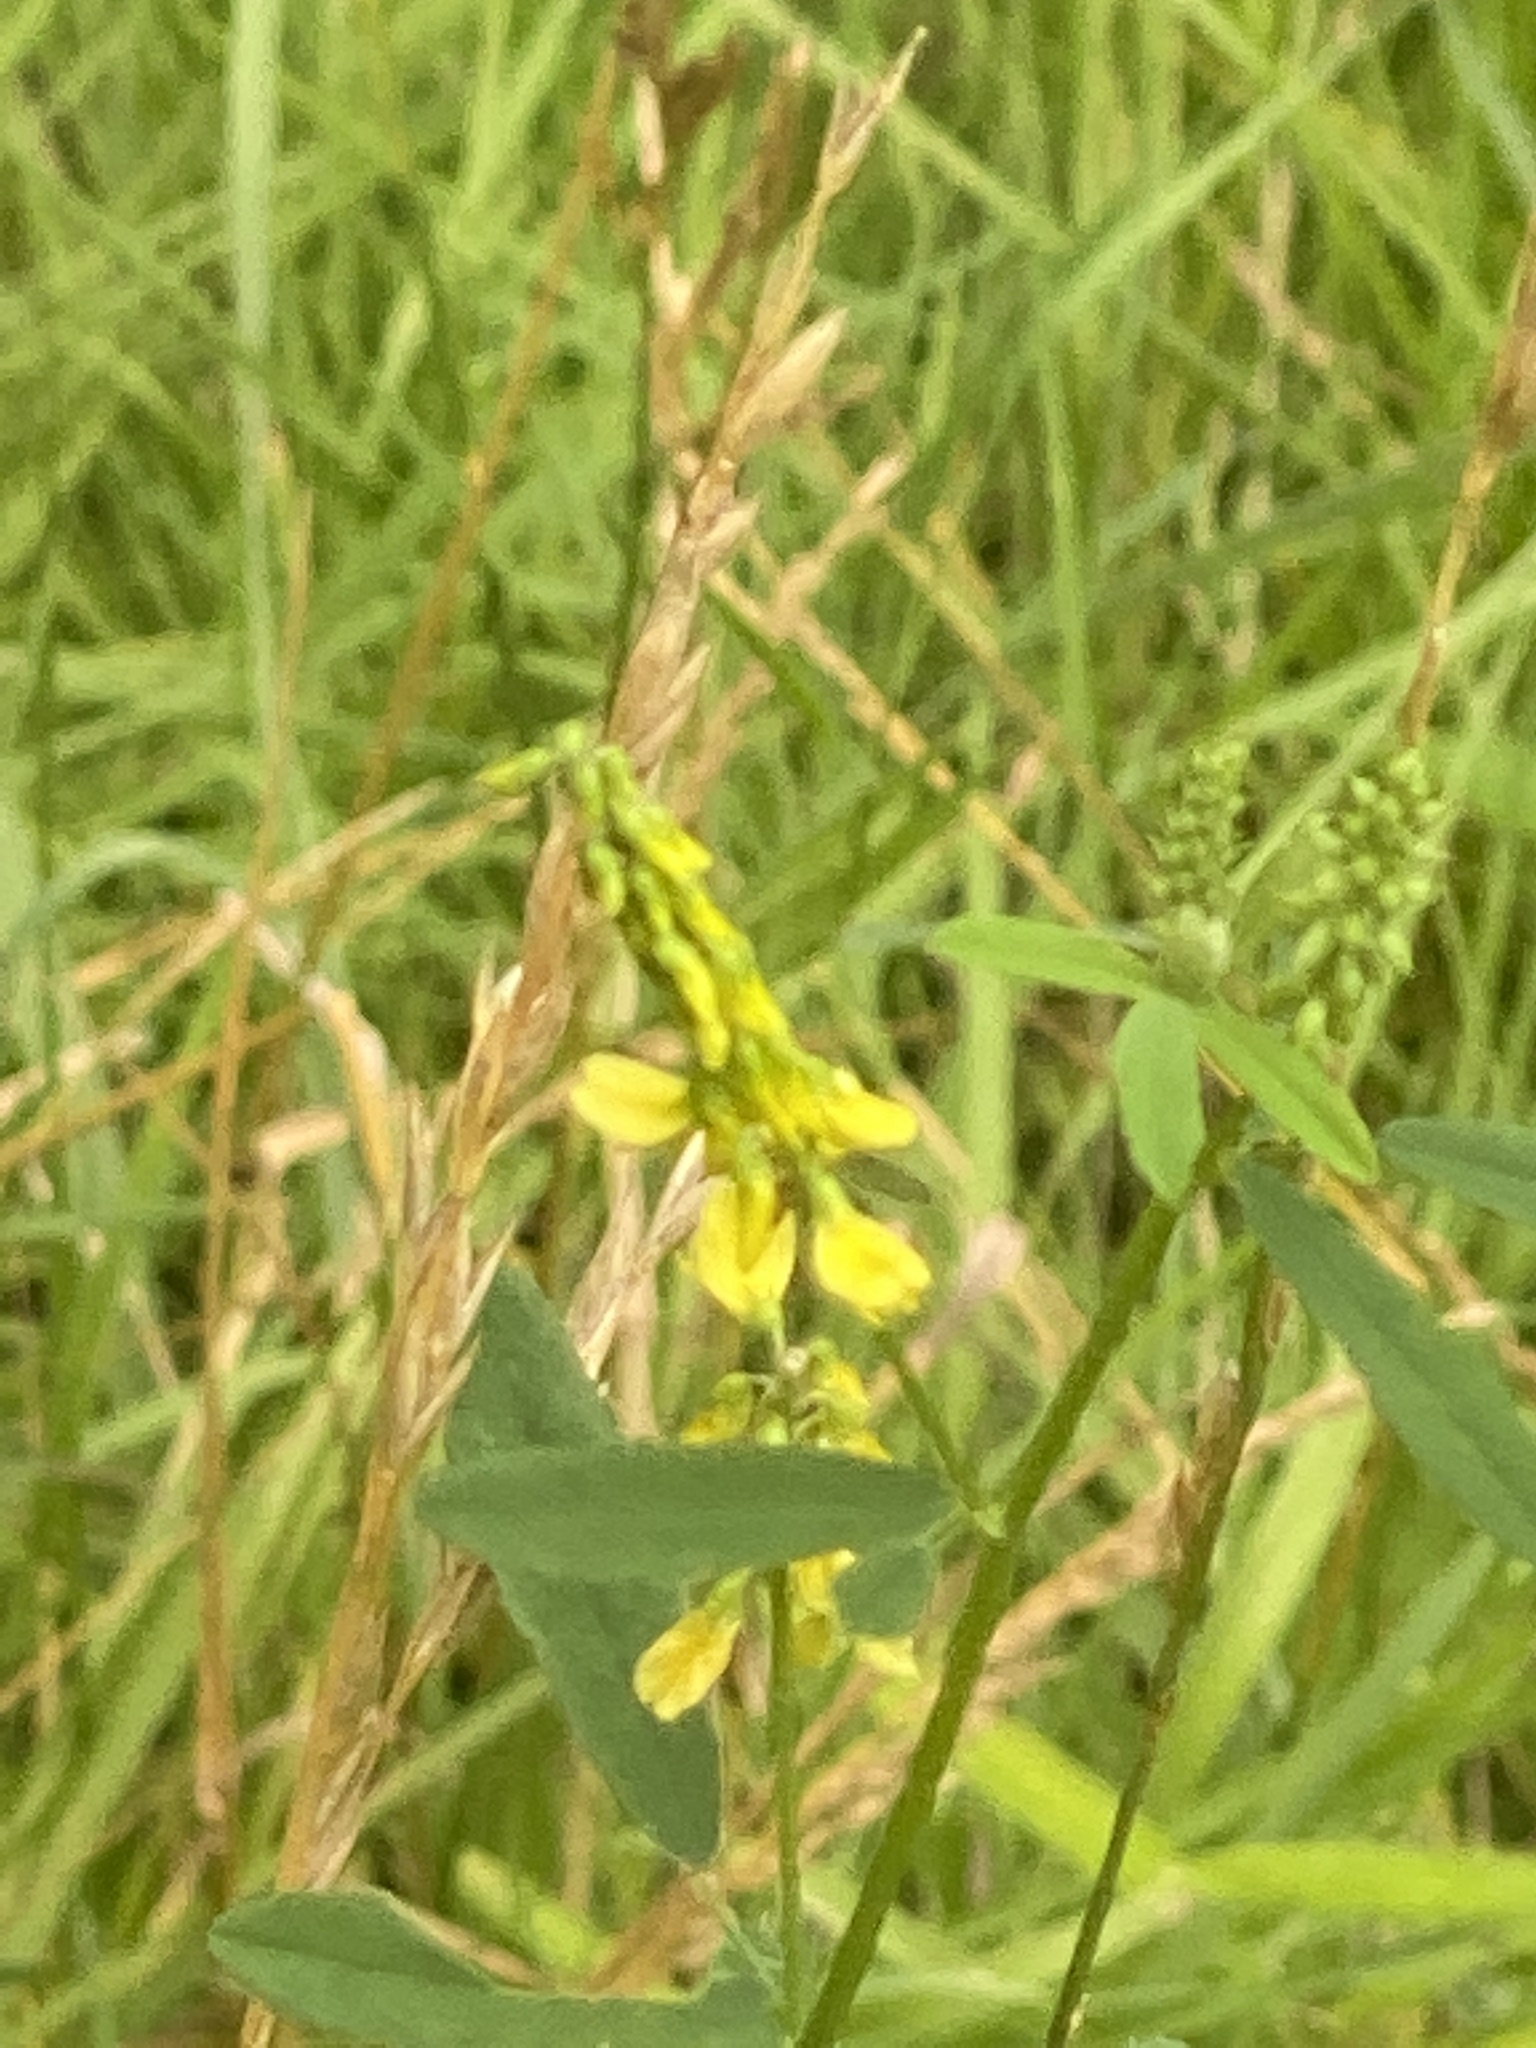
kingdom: Plantae
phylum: Tracheophyta
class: Magnoliopsida
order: Fabales
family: Fabaceae
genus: Melilotus
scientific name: Melilotus officinalis
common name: Sweetclover
